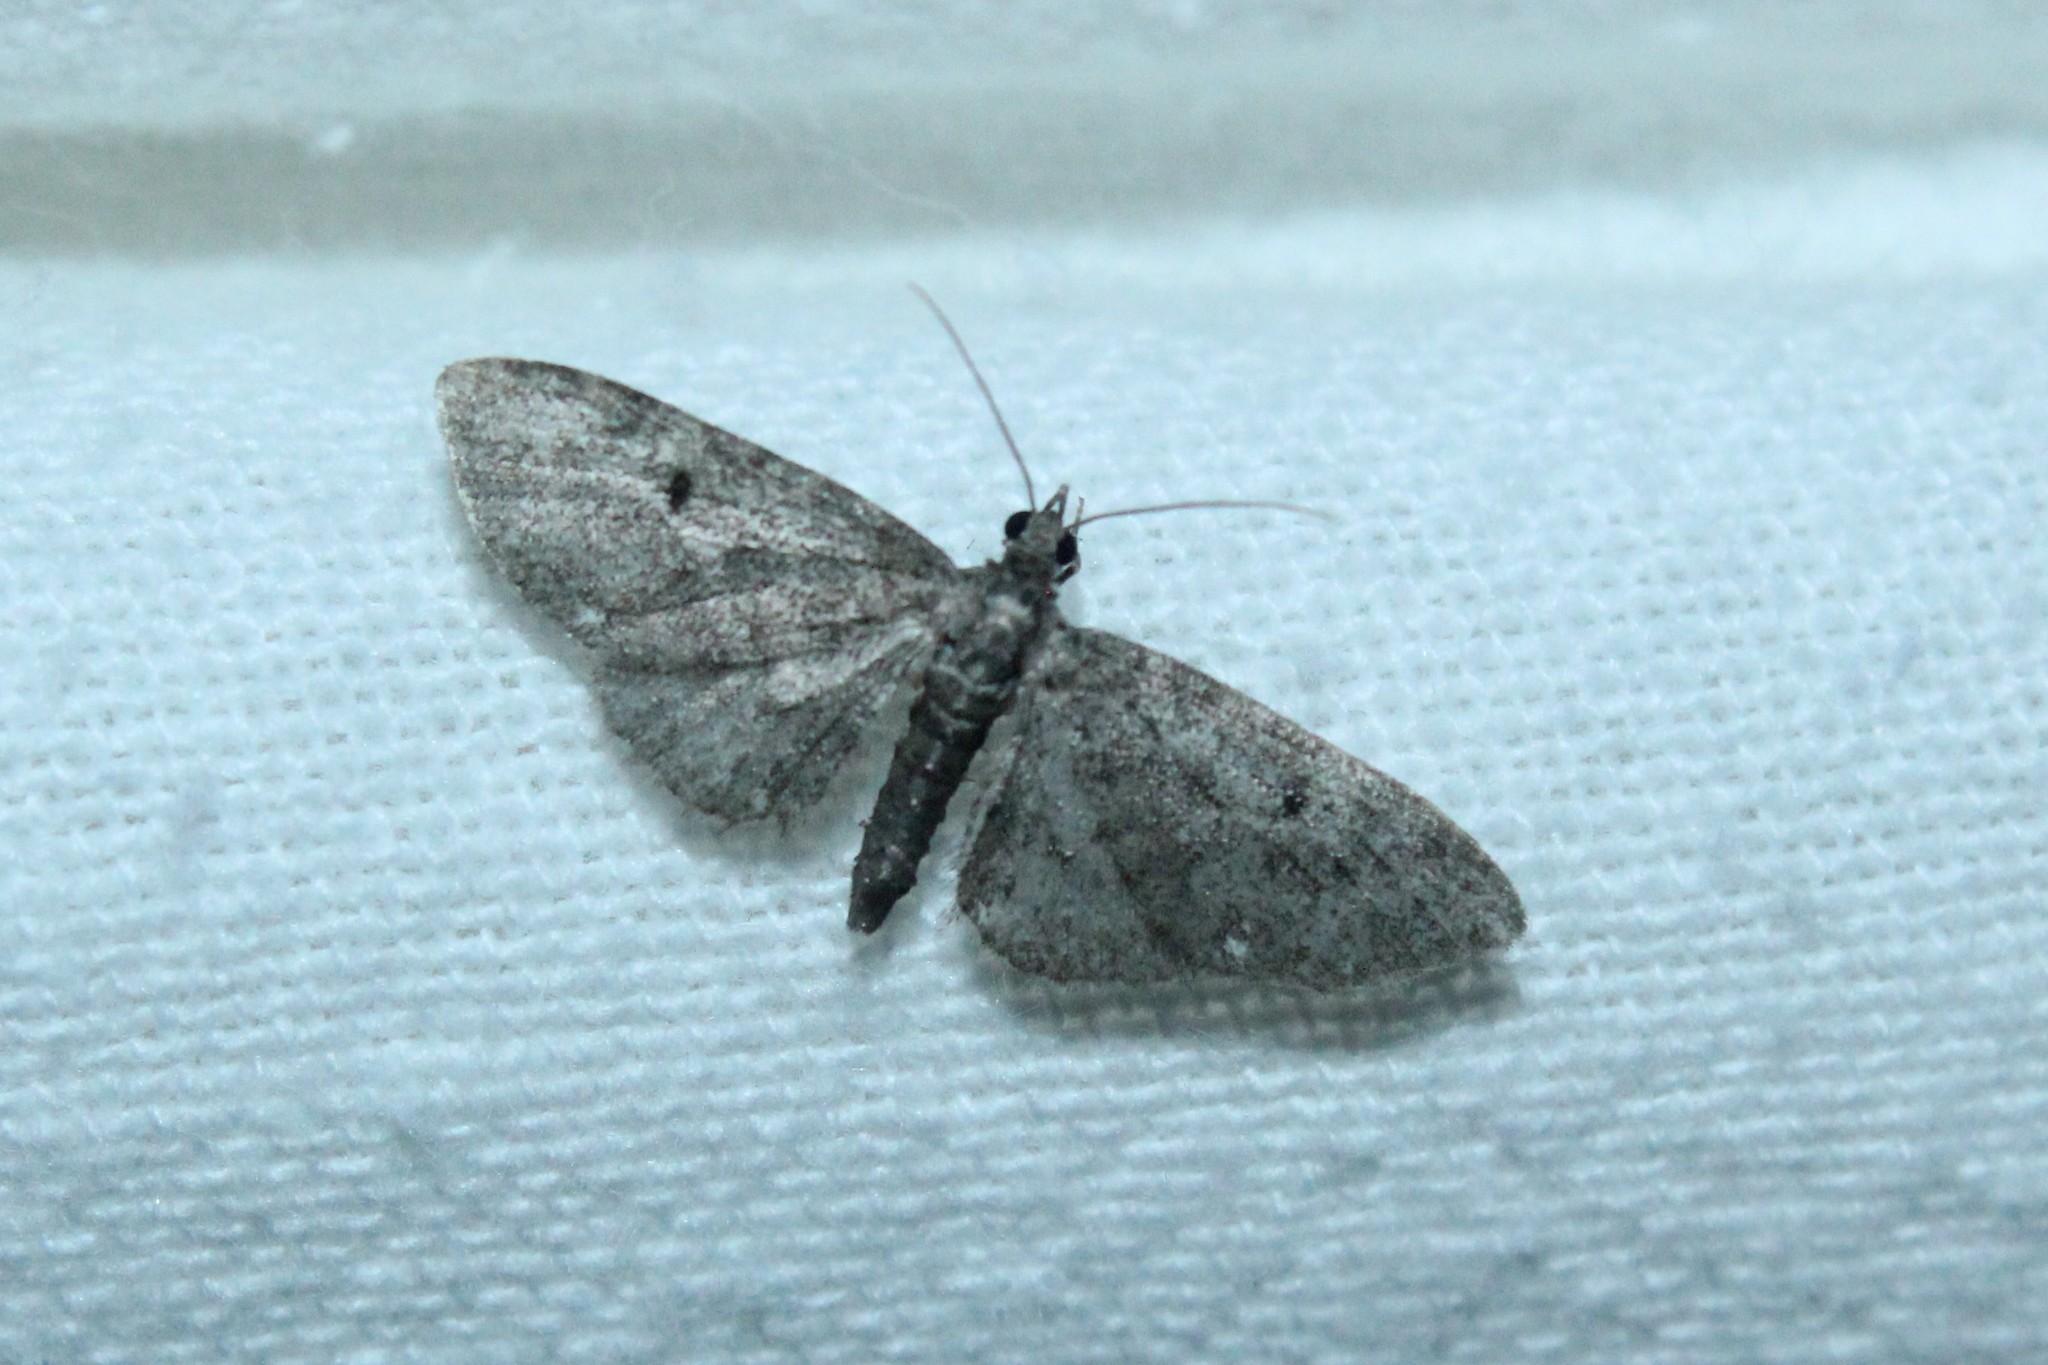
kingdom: Animalia
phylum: Arthropoda
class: Insecta
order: Lepidoptera
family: Geometridae
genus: Eupithecia
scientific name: Eupithecia miserulata
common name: Common eupithecia
